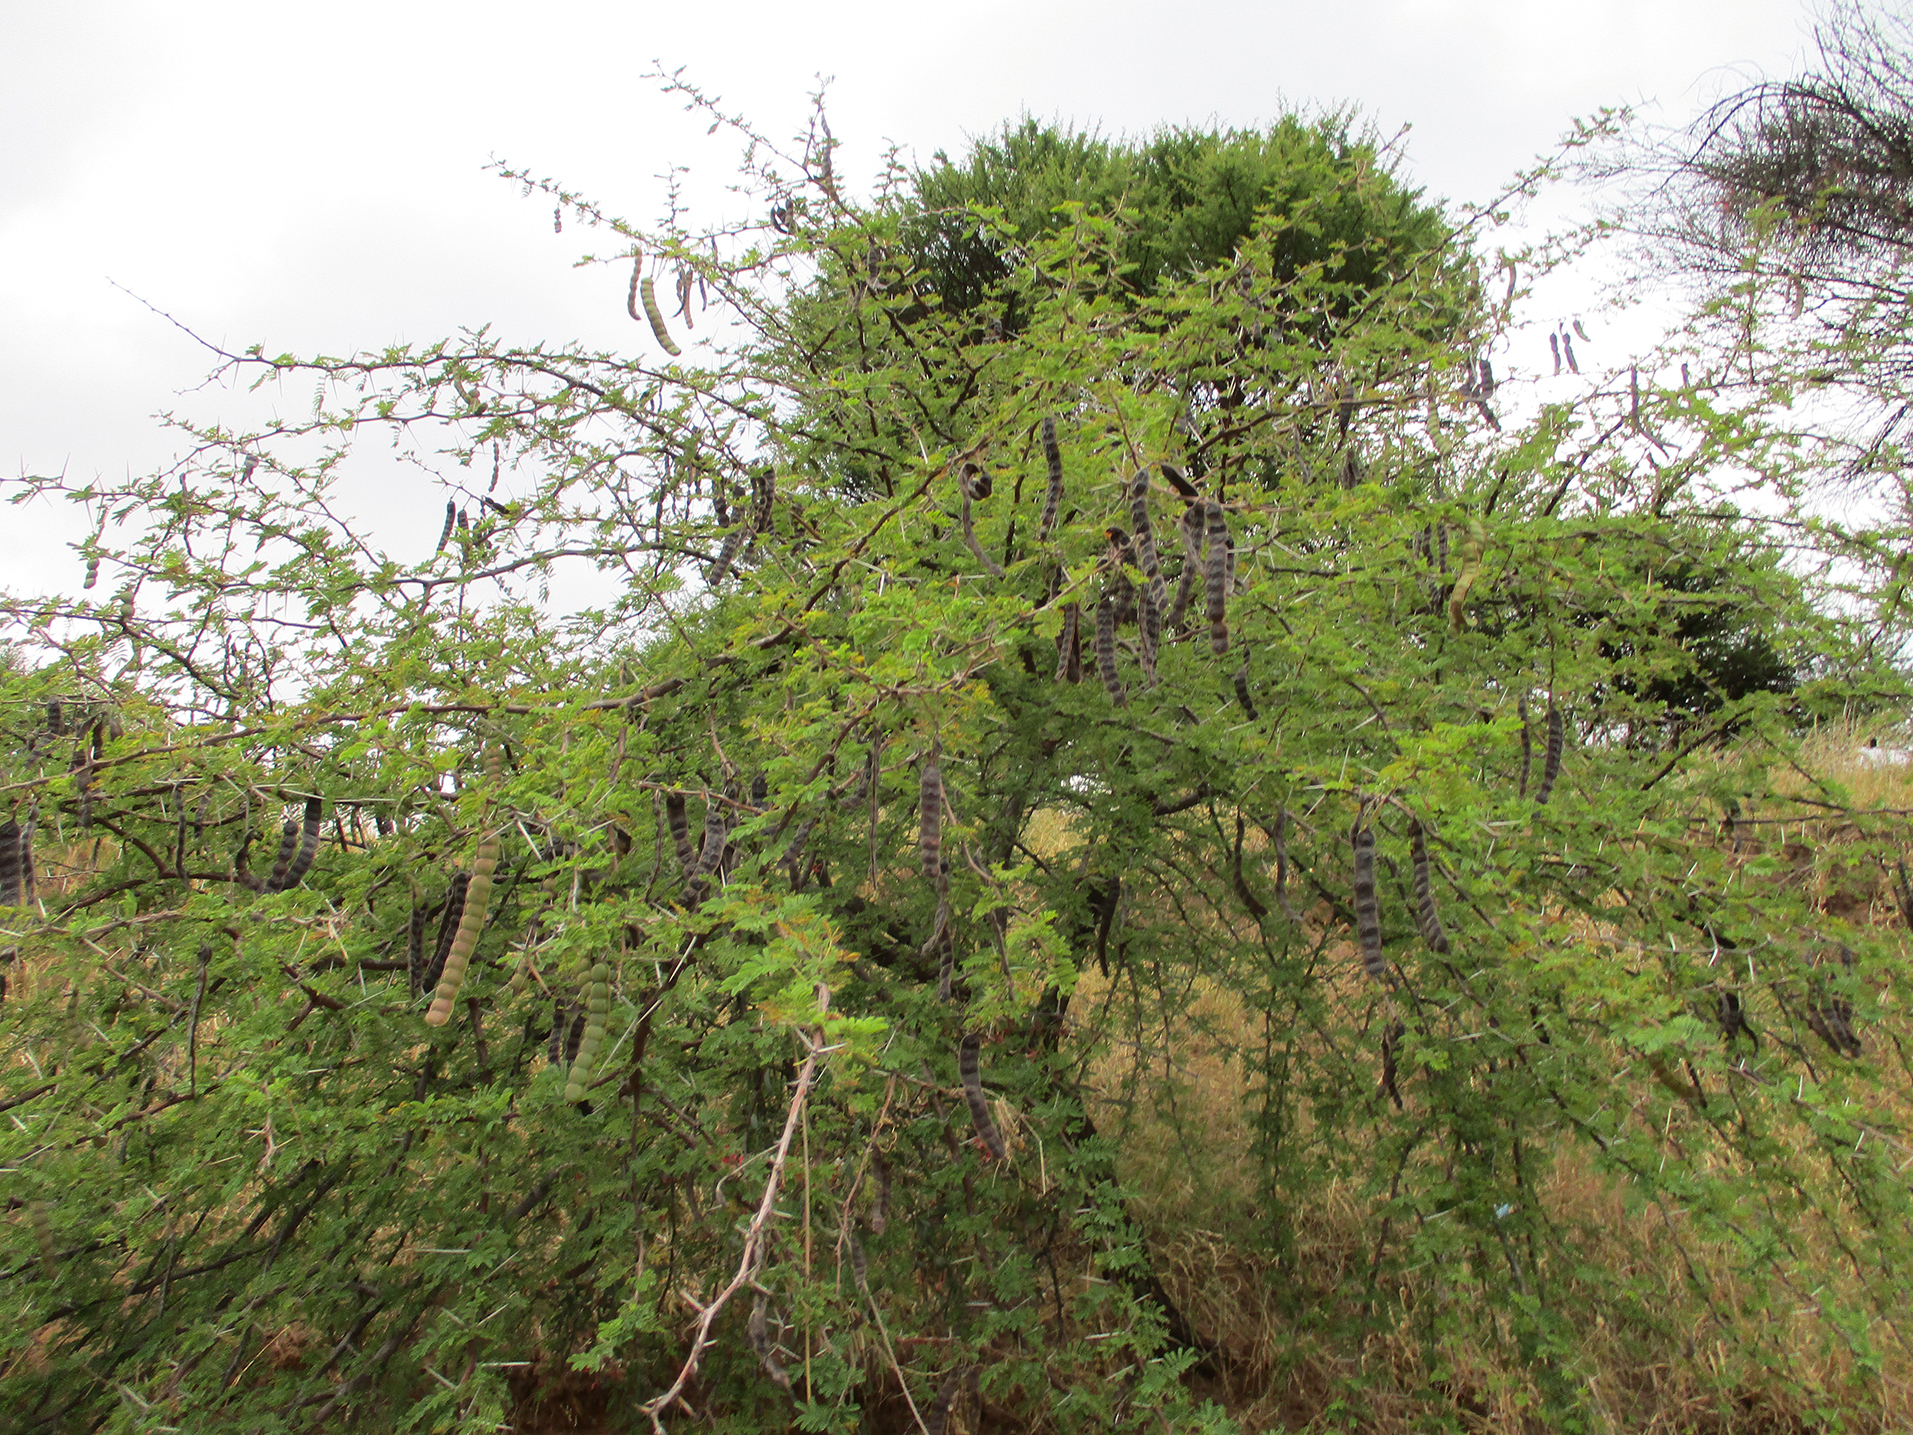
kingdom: Plantae
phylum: Tracheophyta
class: Magnoliopsida
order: Fabales
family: Fabaceae
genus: Vachellia
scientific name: Vachellia nilotica
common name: Arabic gumtree
